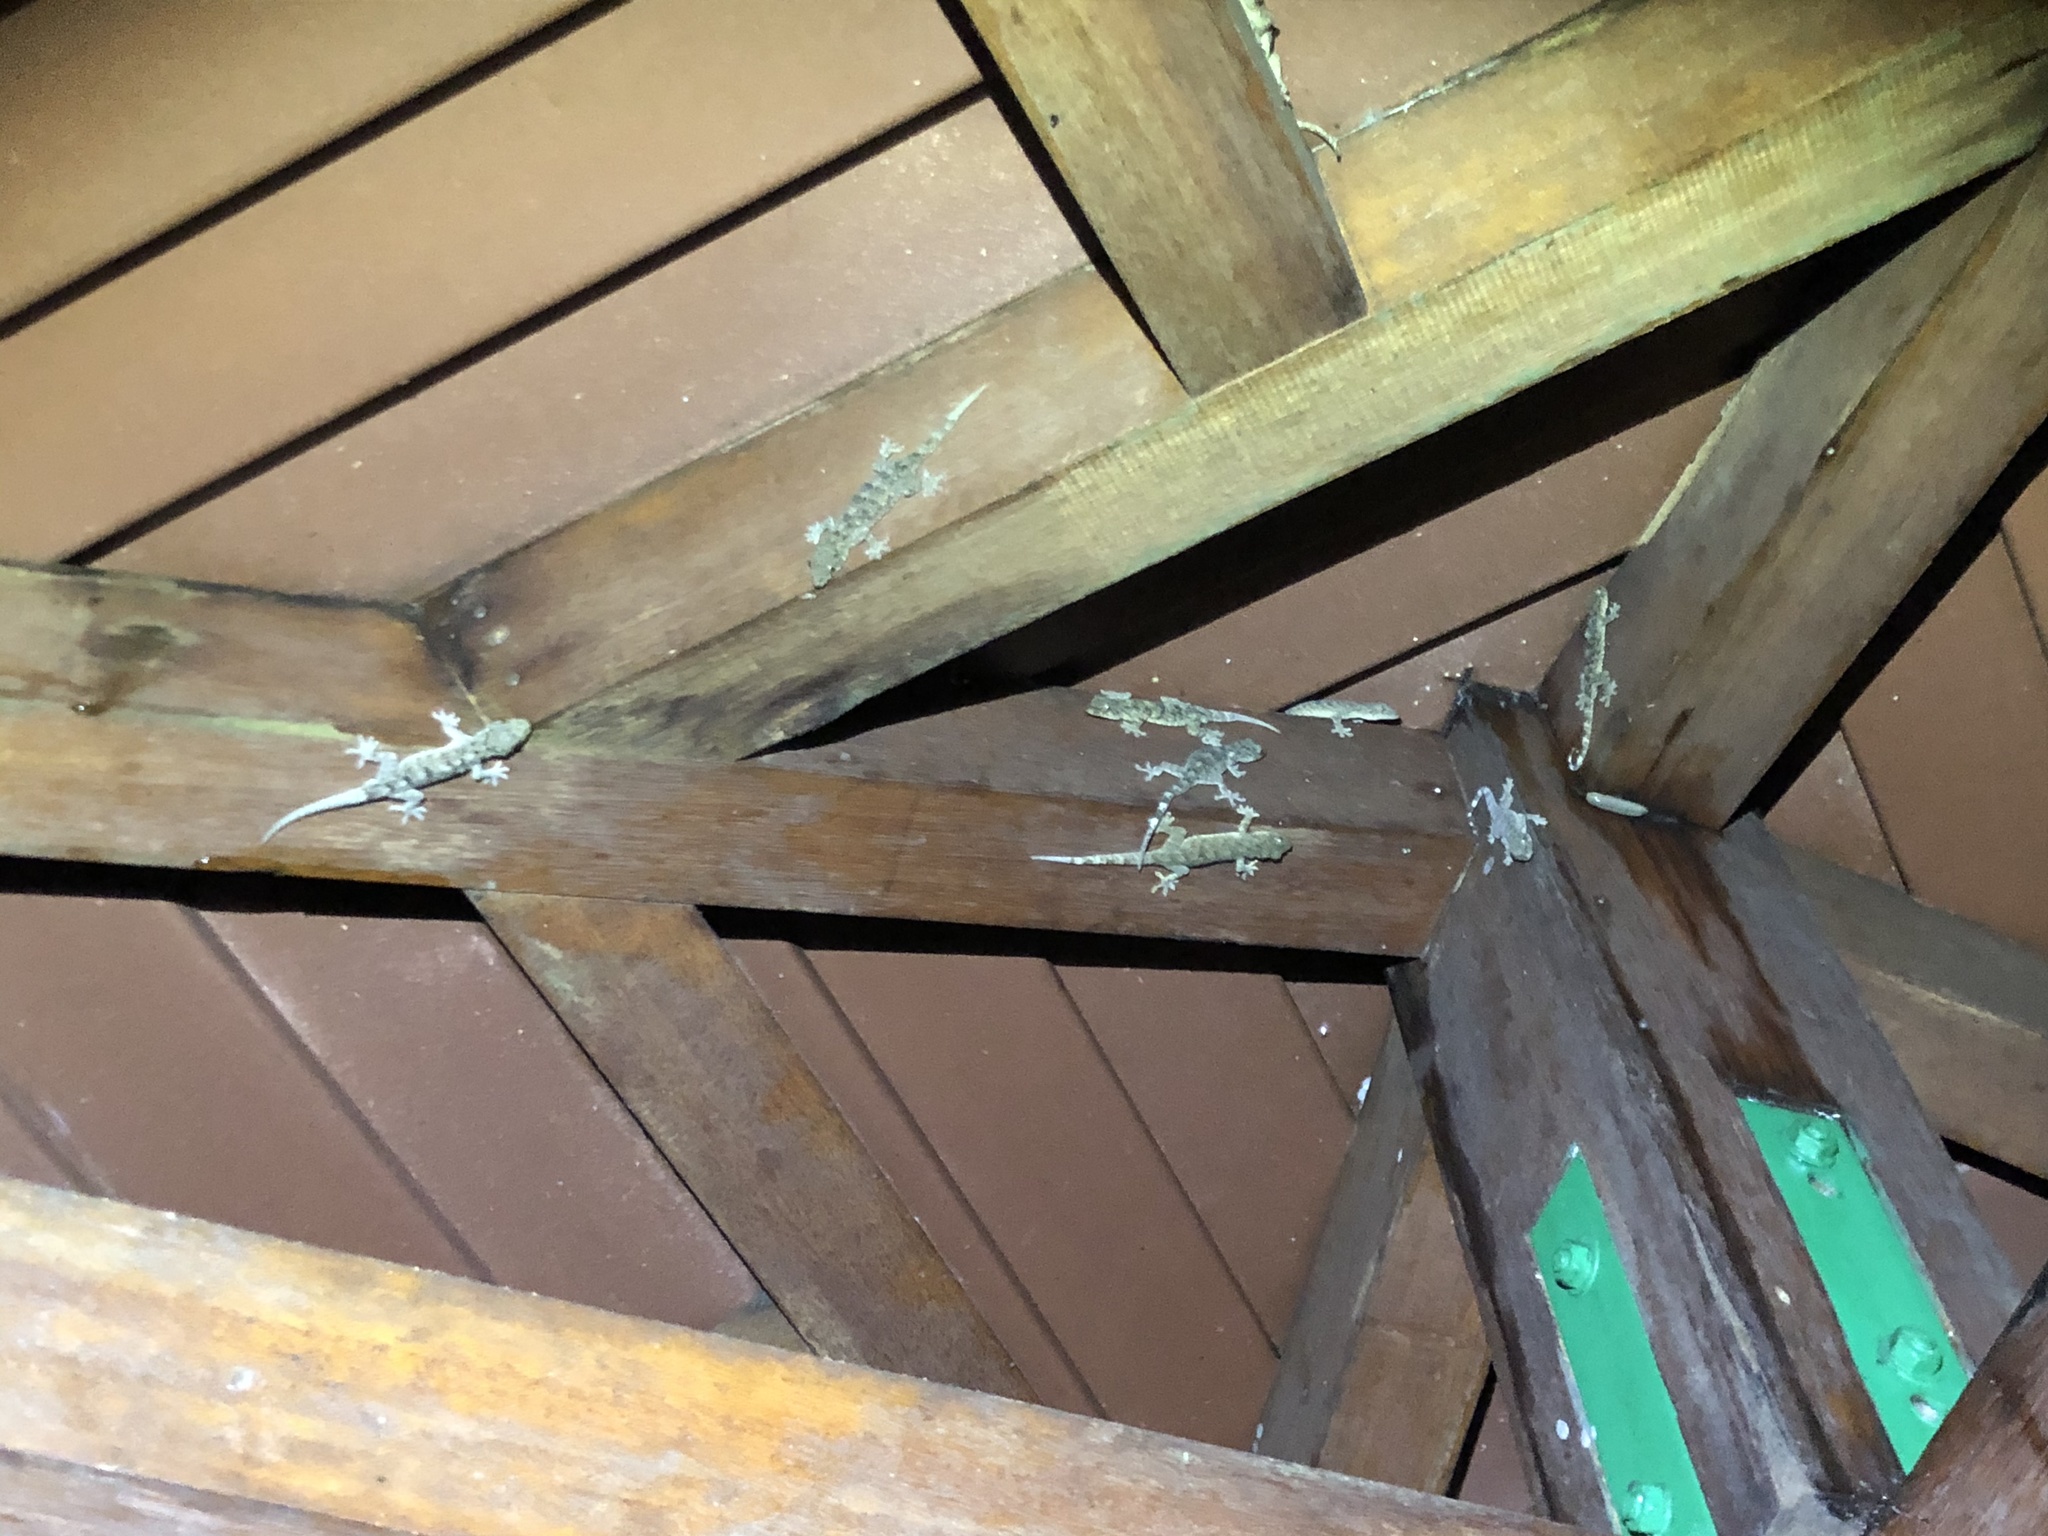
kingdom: Animalia
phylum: Chordata
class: Squamata
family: Gekkonidae
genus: Gekko
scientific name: Gekko chinensis
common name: Gray's chinese gecko
